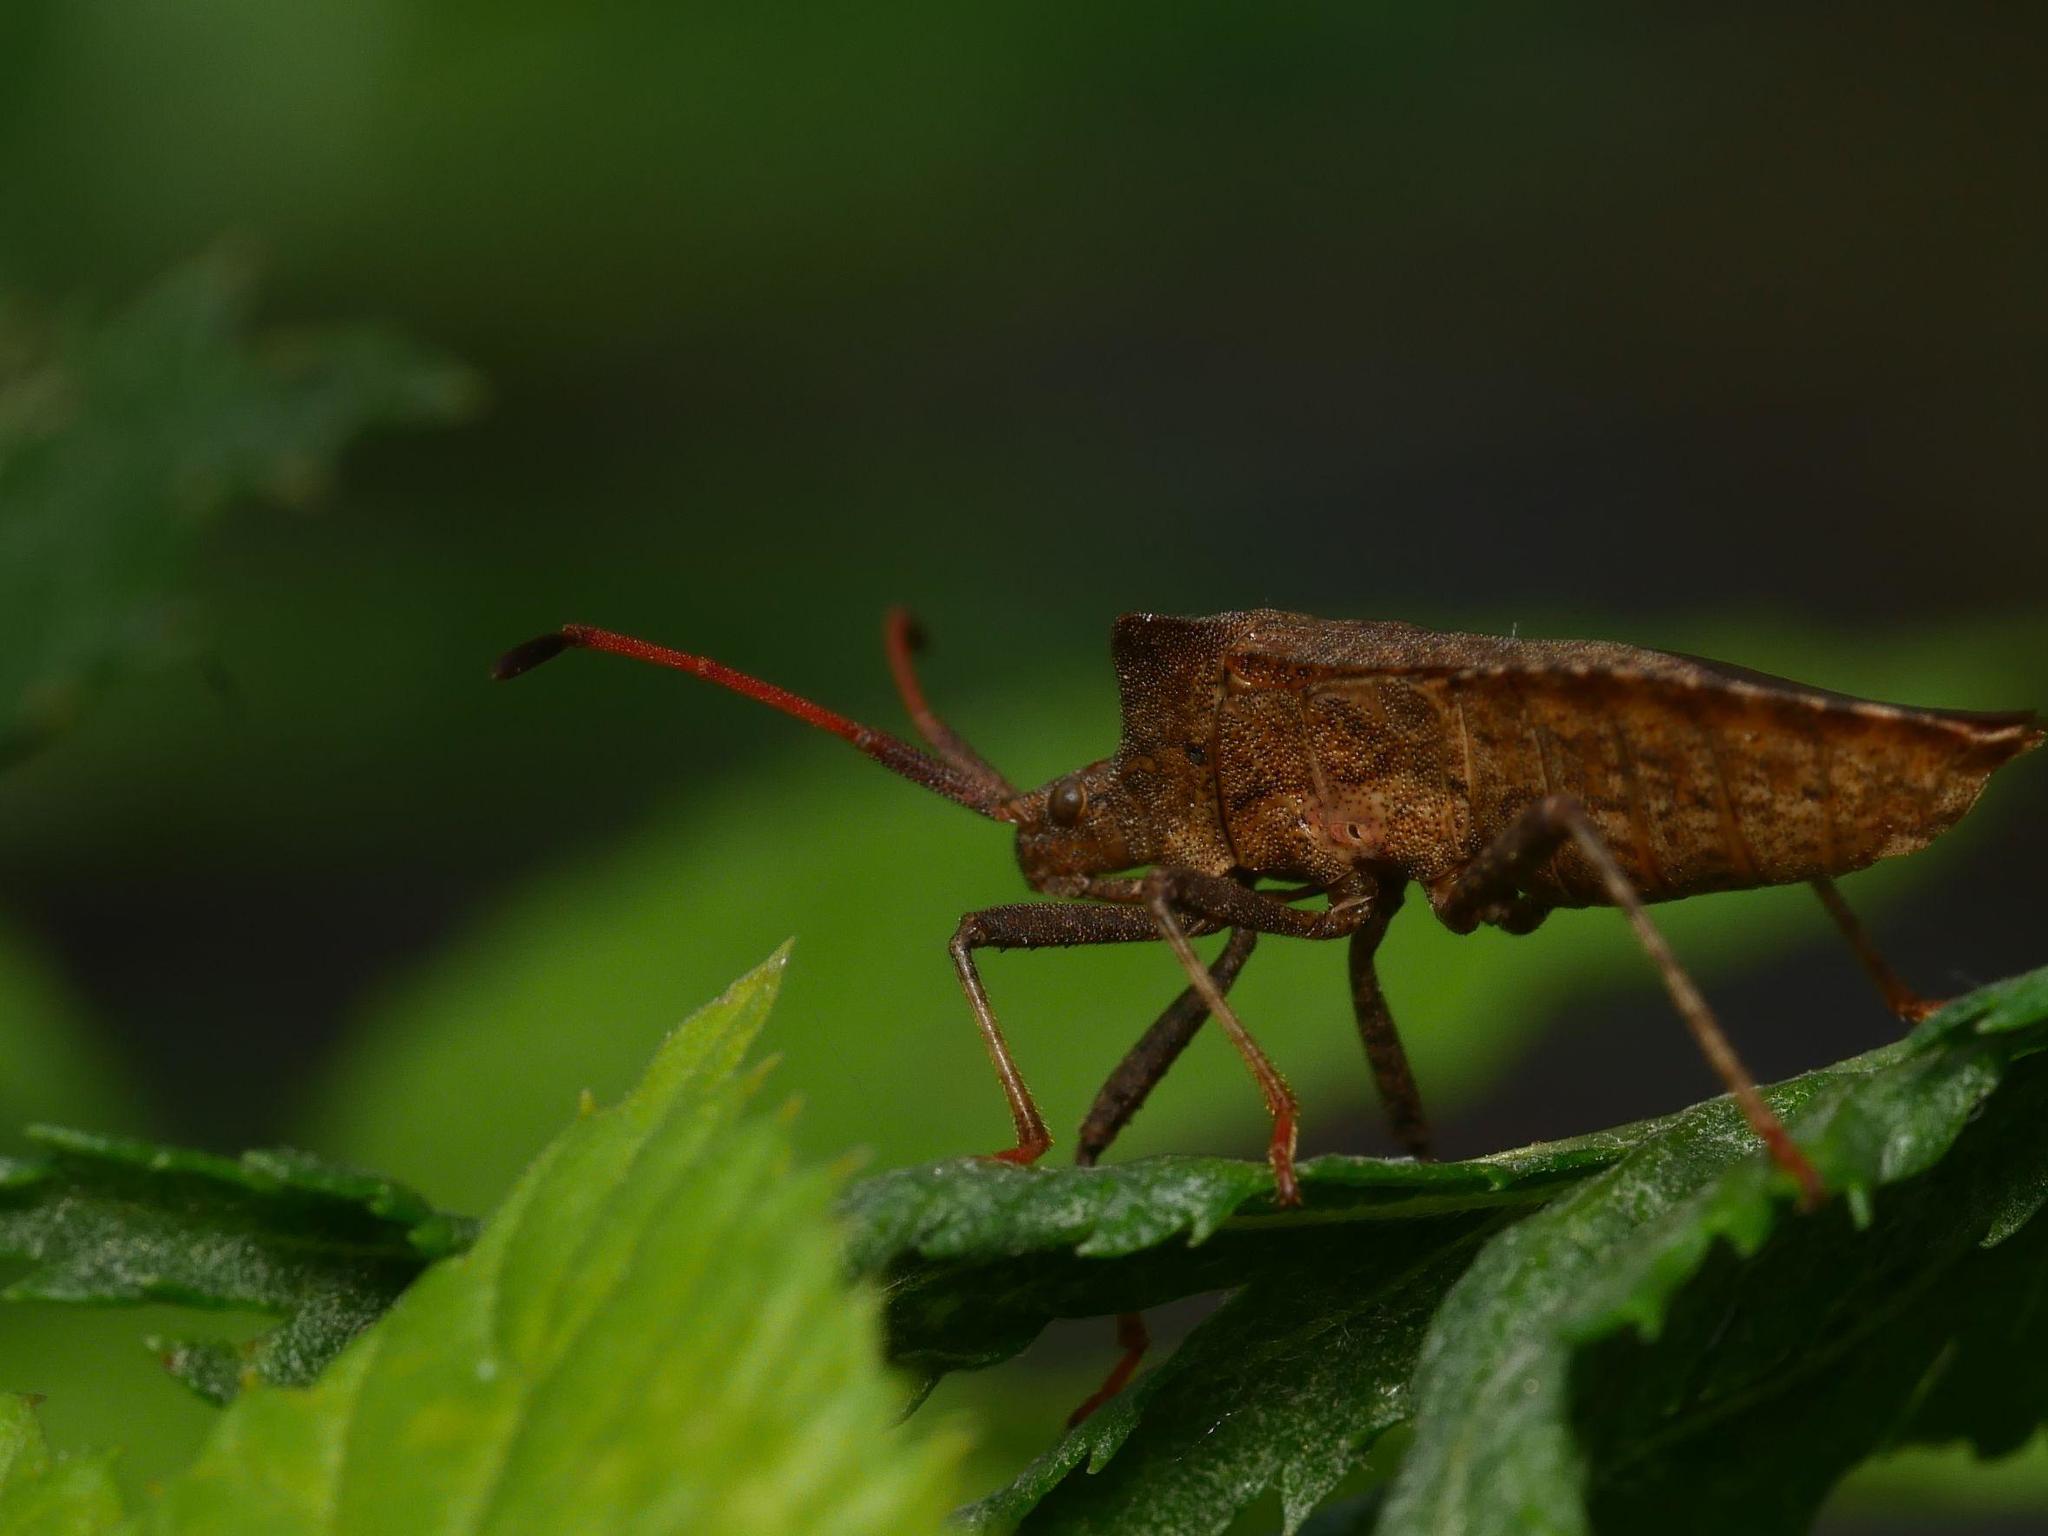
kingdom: Animalia
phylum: Arthropoda
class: Insecta
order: Hemiptera
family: Coreidae
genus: Coreus
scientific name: Coreus marginatus
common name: Dock bug
